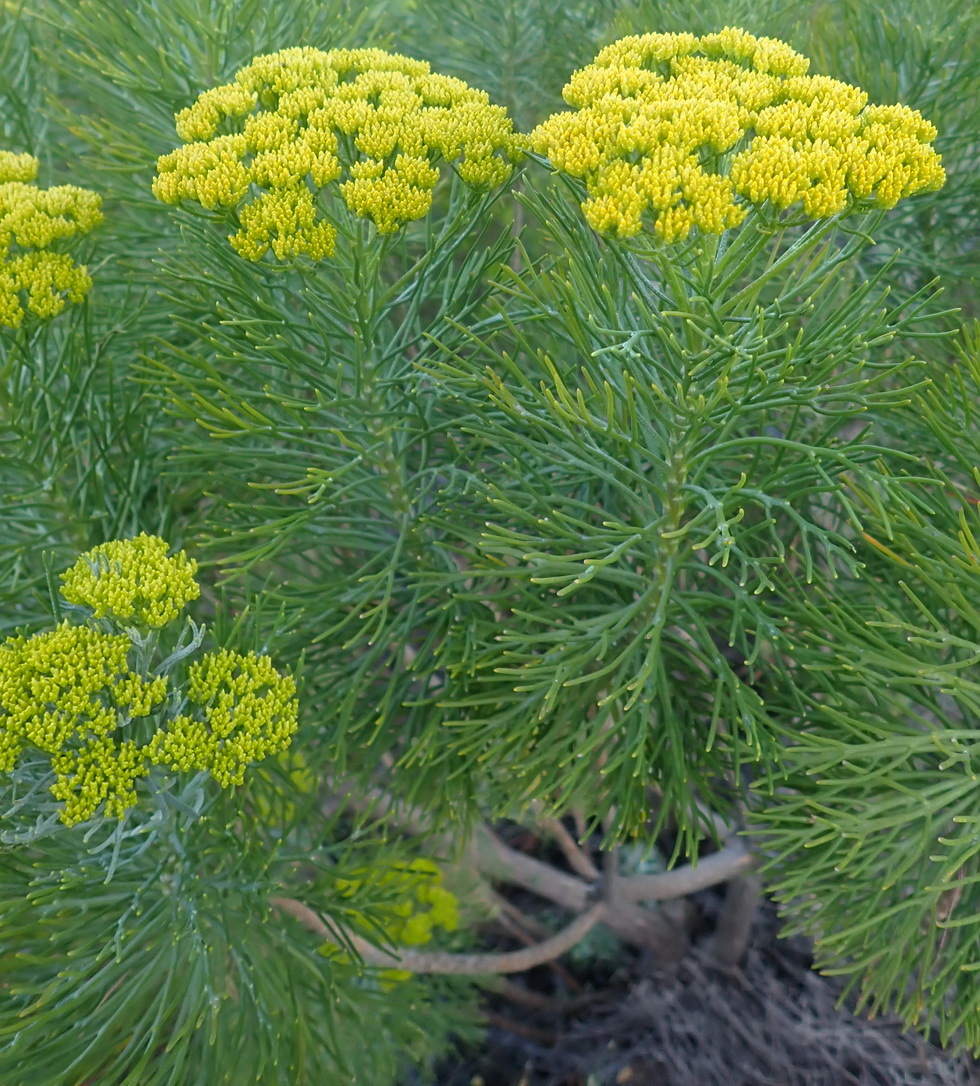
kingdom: Plantae
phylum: Tracheophyta
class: Magnoliopsida
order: Asterales
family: Asteraceae
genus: Hymenolepis
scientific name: Hymenolepis crithmifolia
